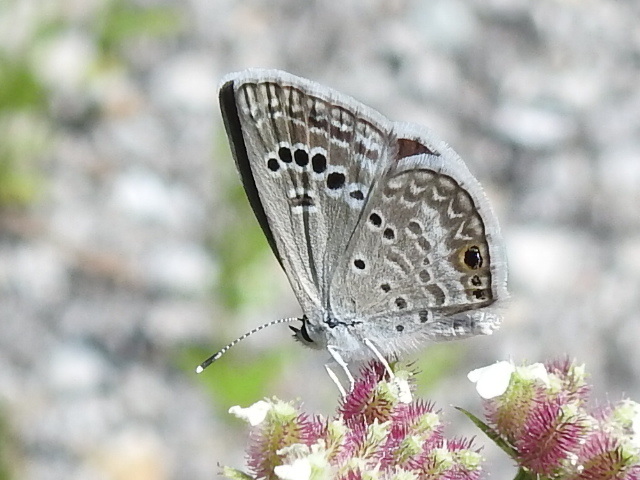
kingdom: Animalia
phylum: Arthropoda
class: Insecta
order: Lepidoptera
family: Lycaenidae
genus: Echinargus
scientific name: Echinargus isola
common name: Reakirt's blue
